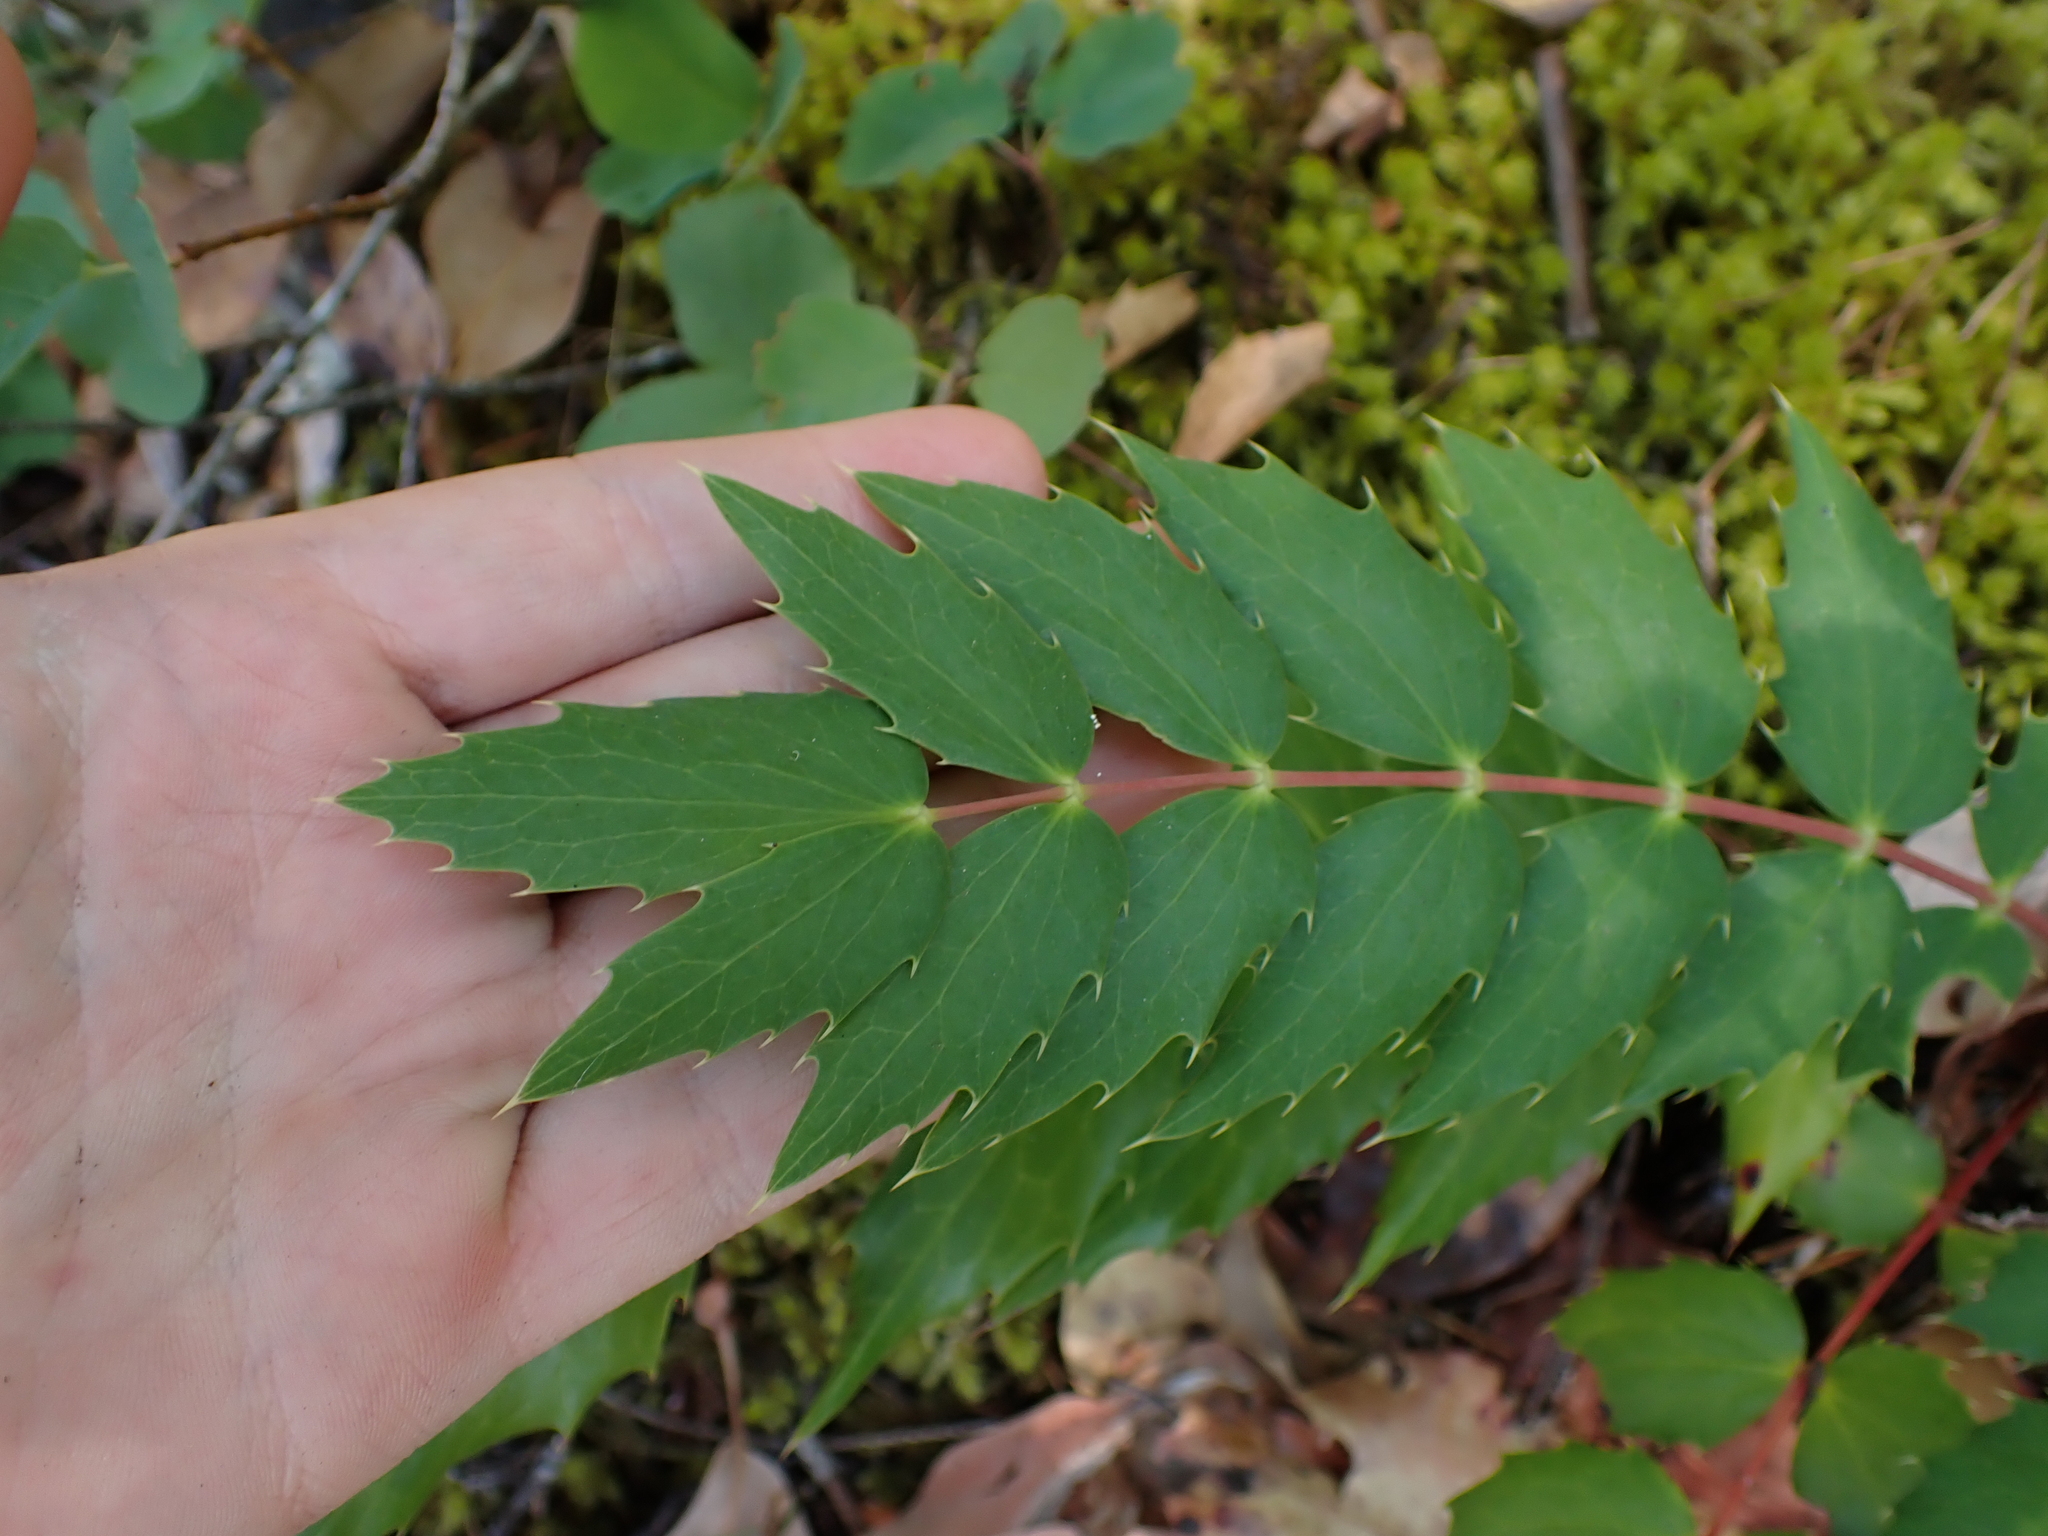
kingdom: Plantae
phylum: Tracheophyta
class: Magnoliopsida
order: Ranunculales
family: Berberidaceae
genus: Mahonia
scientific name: Mahonia nervosa
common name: Cascade oregon-grape
